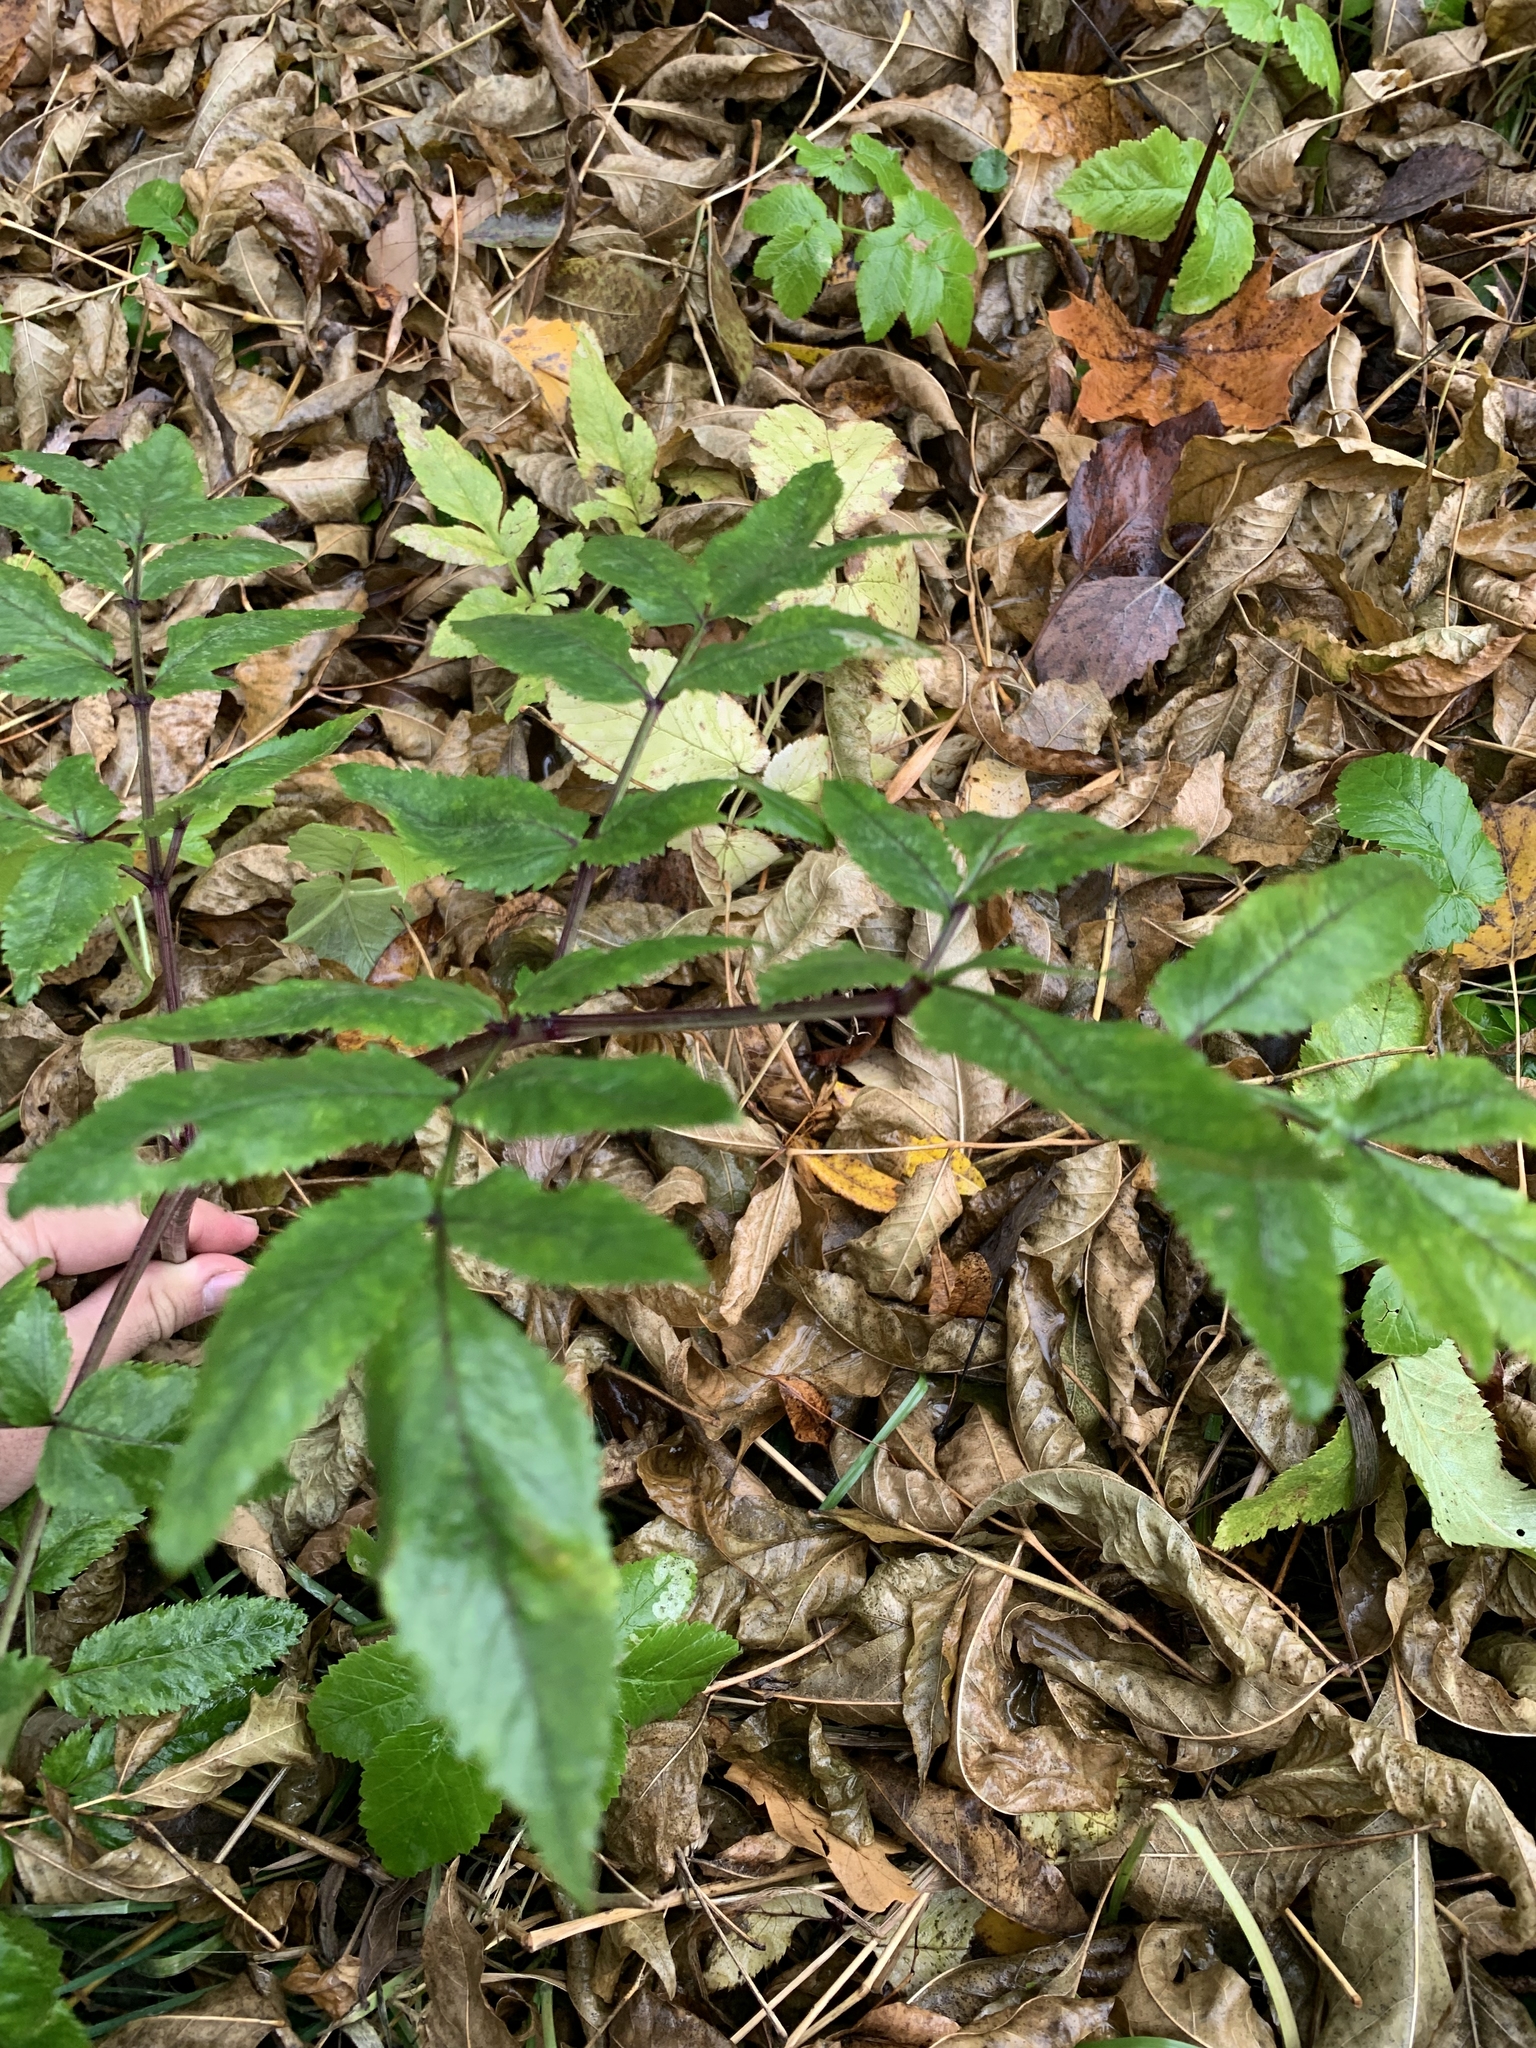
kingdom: Plantae
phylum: Tracheophyta
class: Magnoliopsida
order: Apiales
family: Apiaceae
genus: Angelica
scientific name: Angelica sylvestris
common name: Wild angelica
